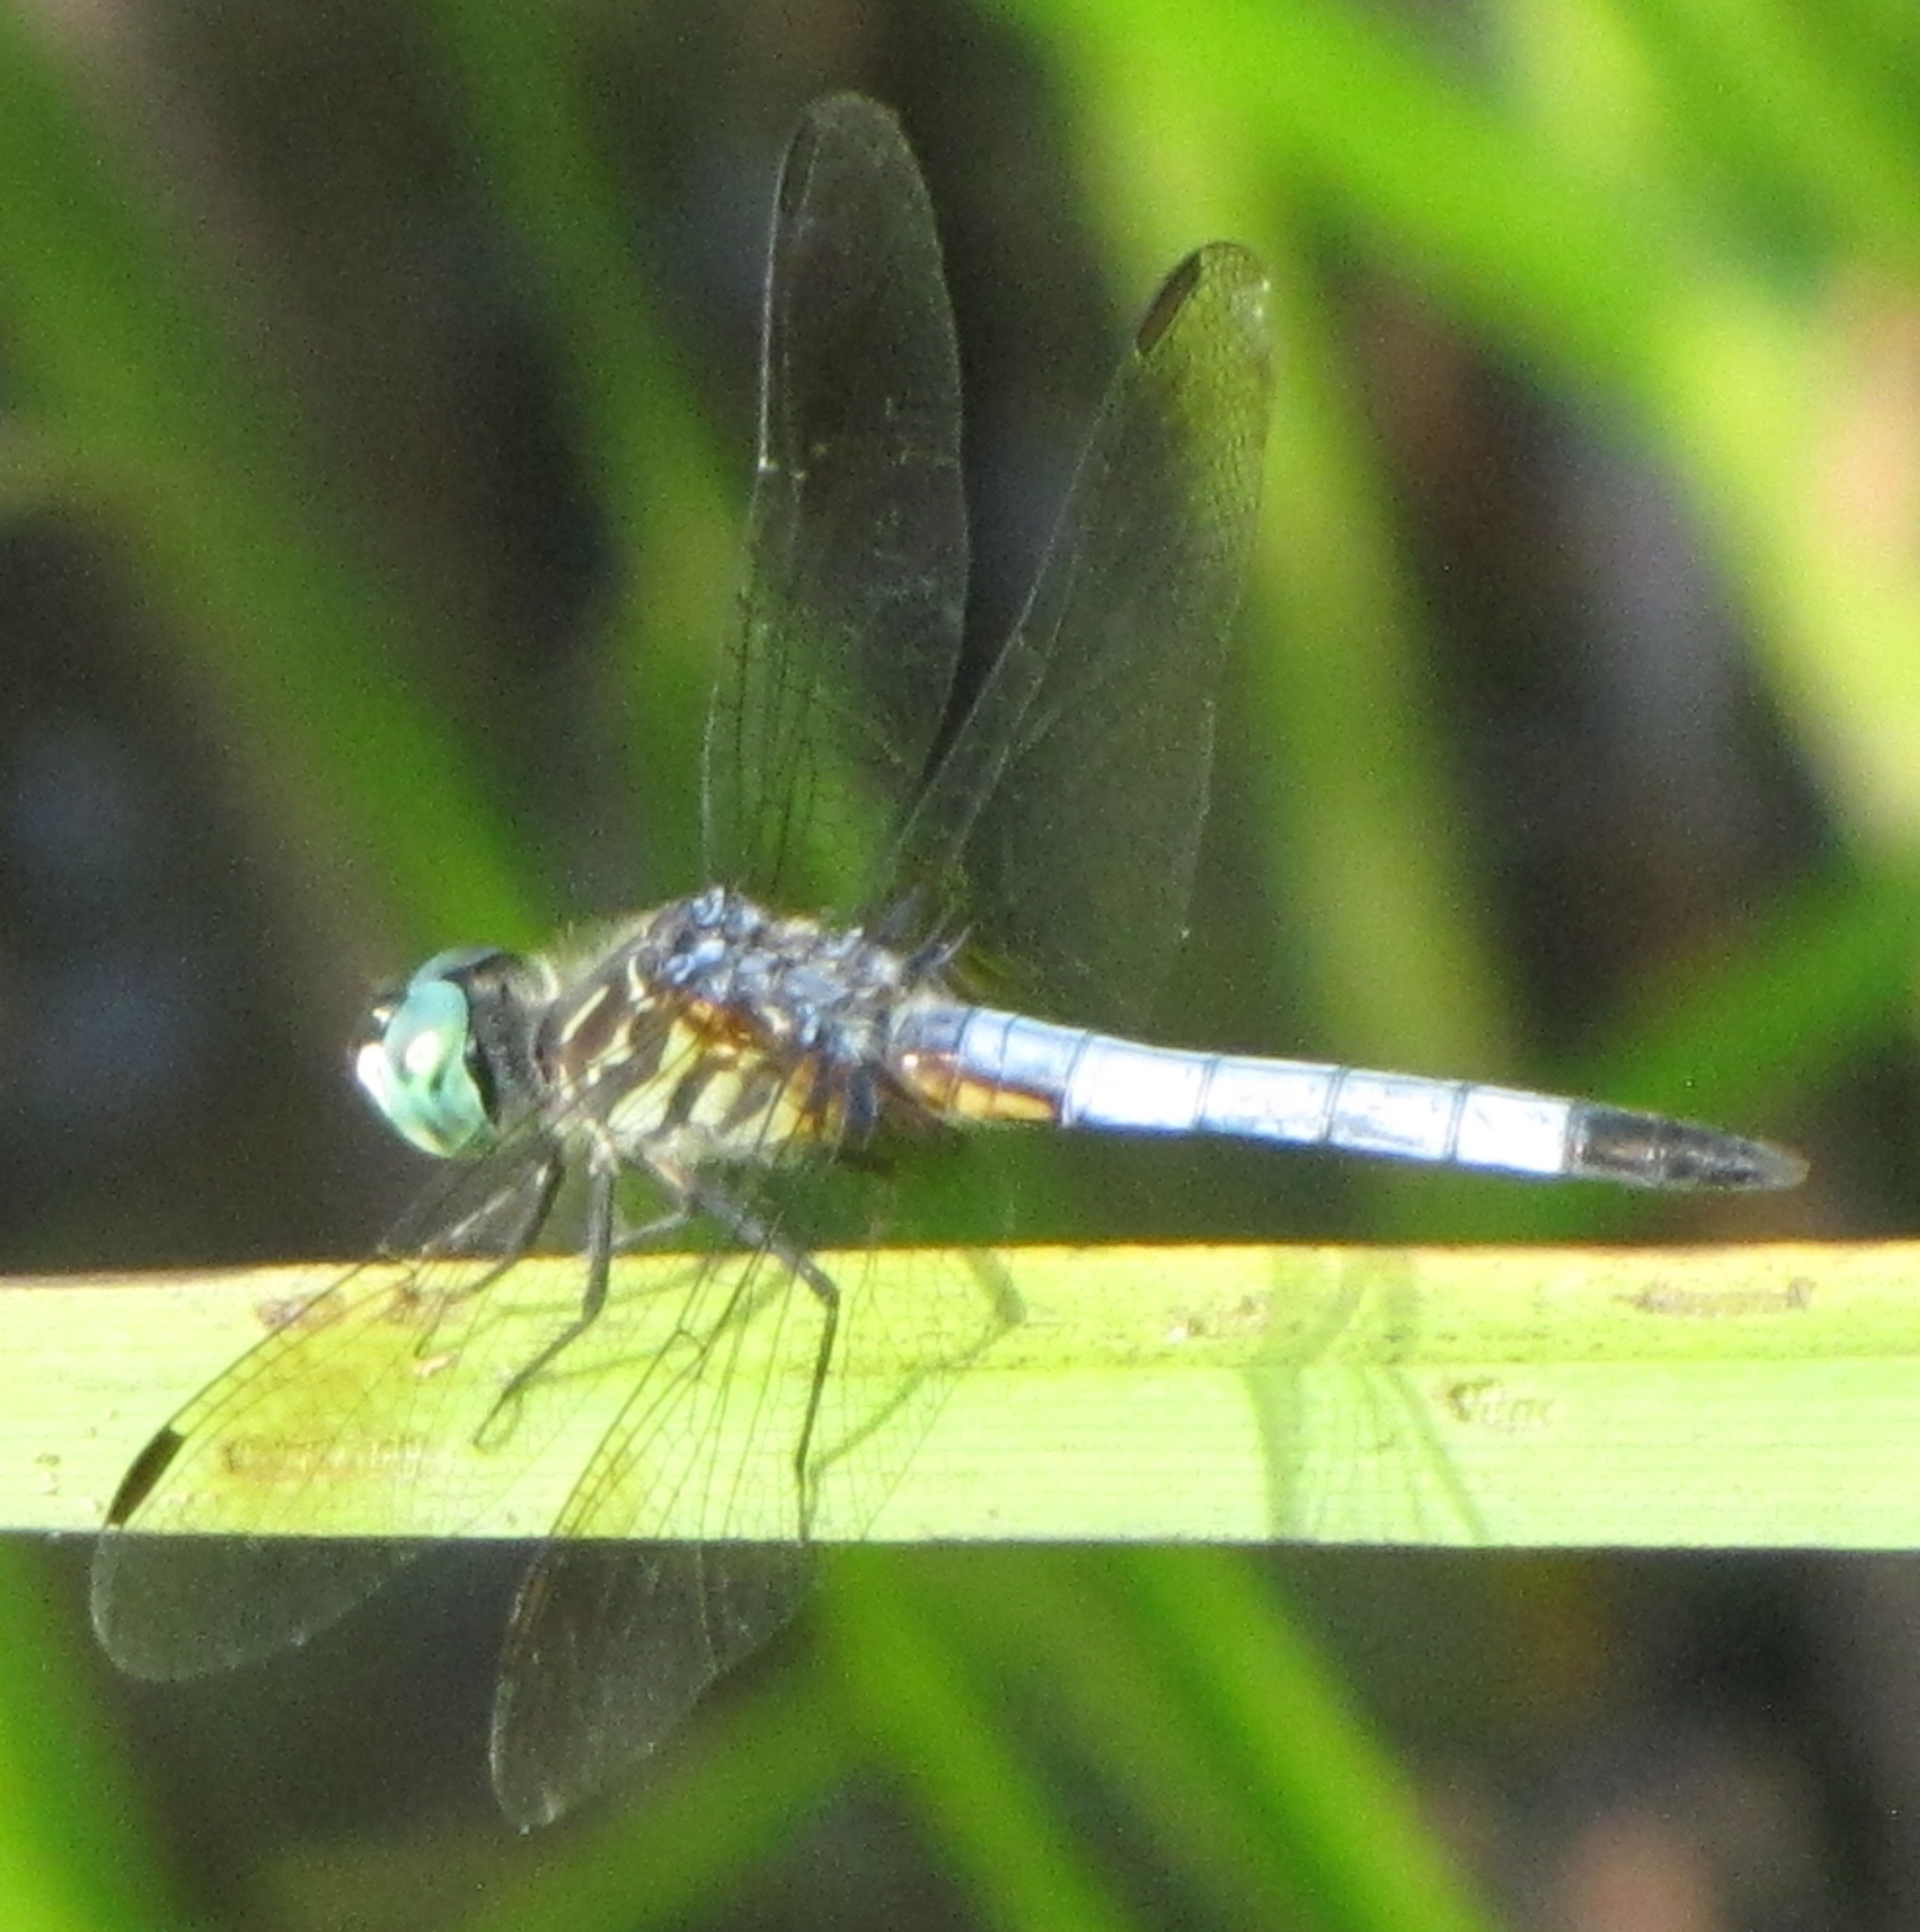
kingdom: Animalia
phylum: Arthropoda
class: Insecta
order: Odonata
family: Libellulidae
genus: Pachydiplax
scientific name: Pachydiplax longipennis
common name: Blue dasher
